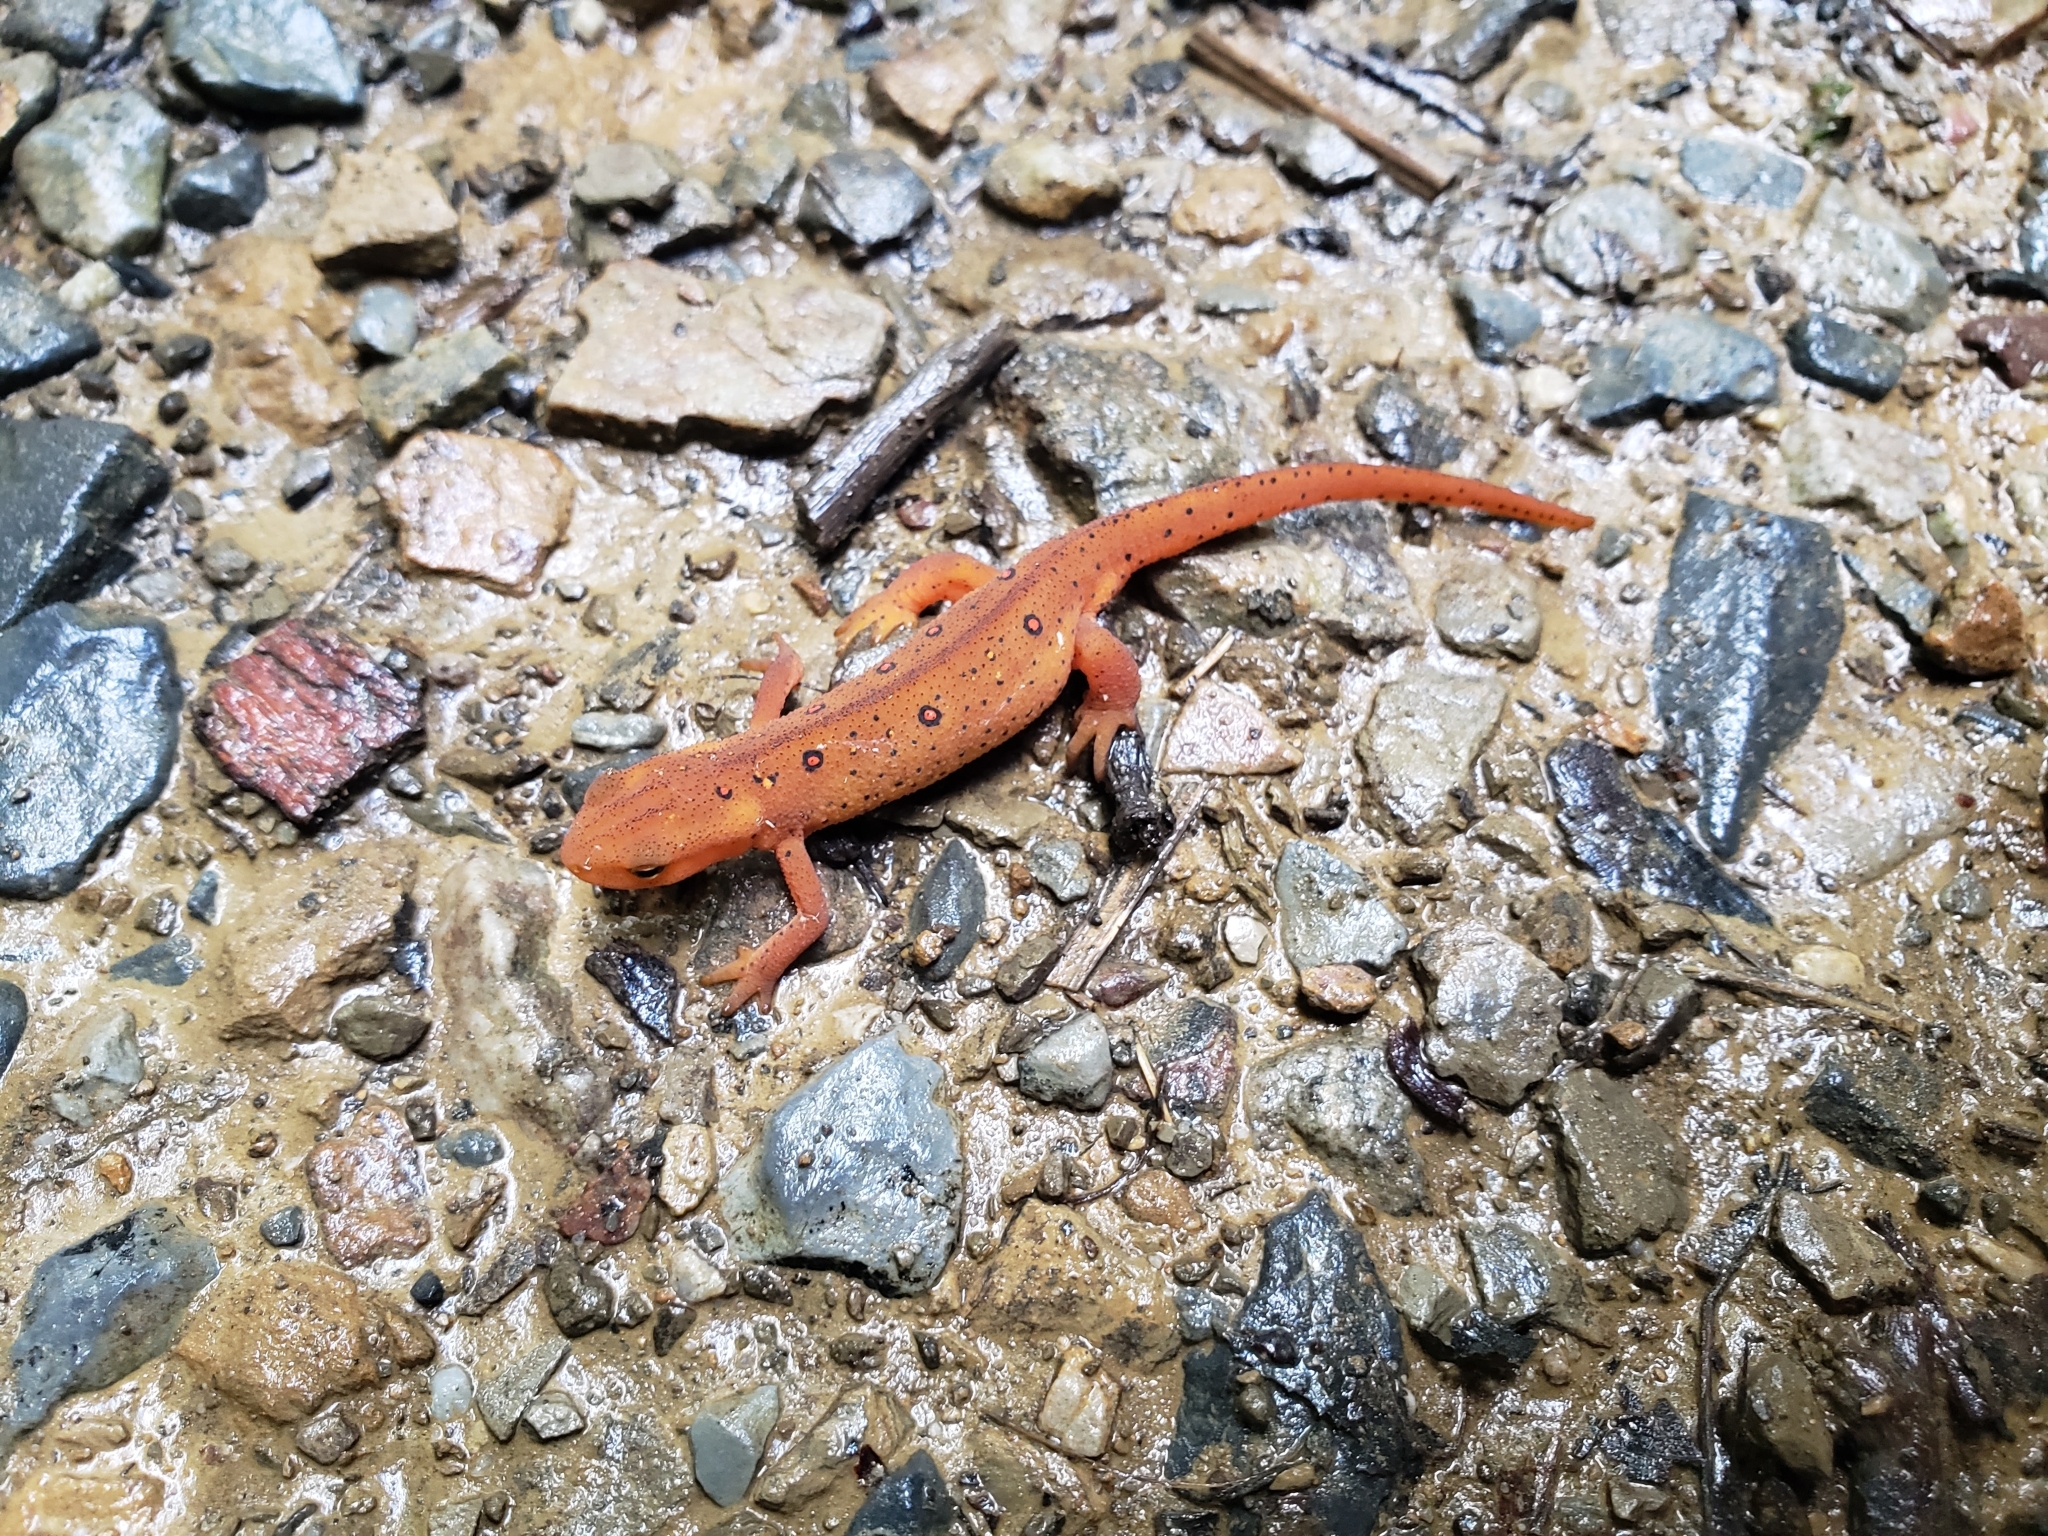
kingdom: Animalia
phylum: Chordata
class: Amphibia
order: Caudata
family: Salamandridae
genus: Notophthalmus
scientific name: Notophthalmus viridescens
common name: Eastern newt
